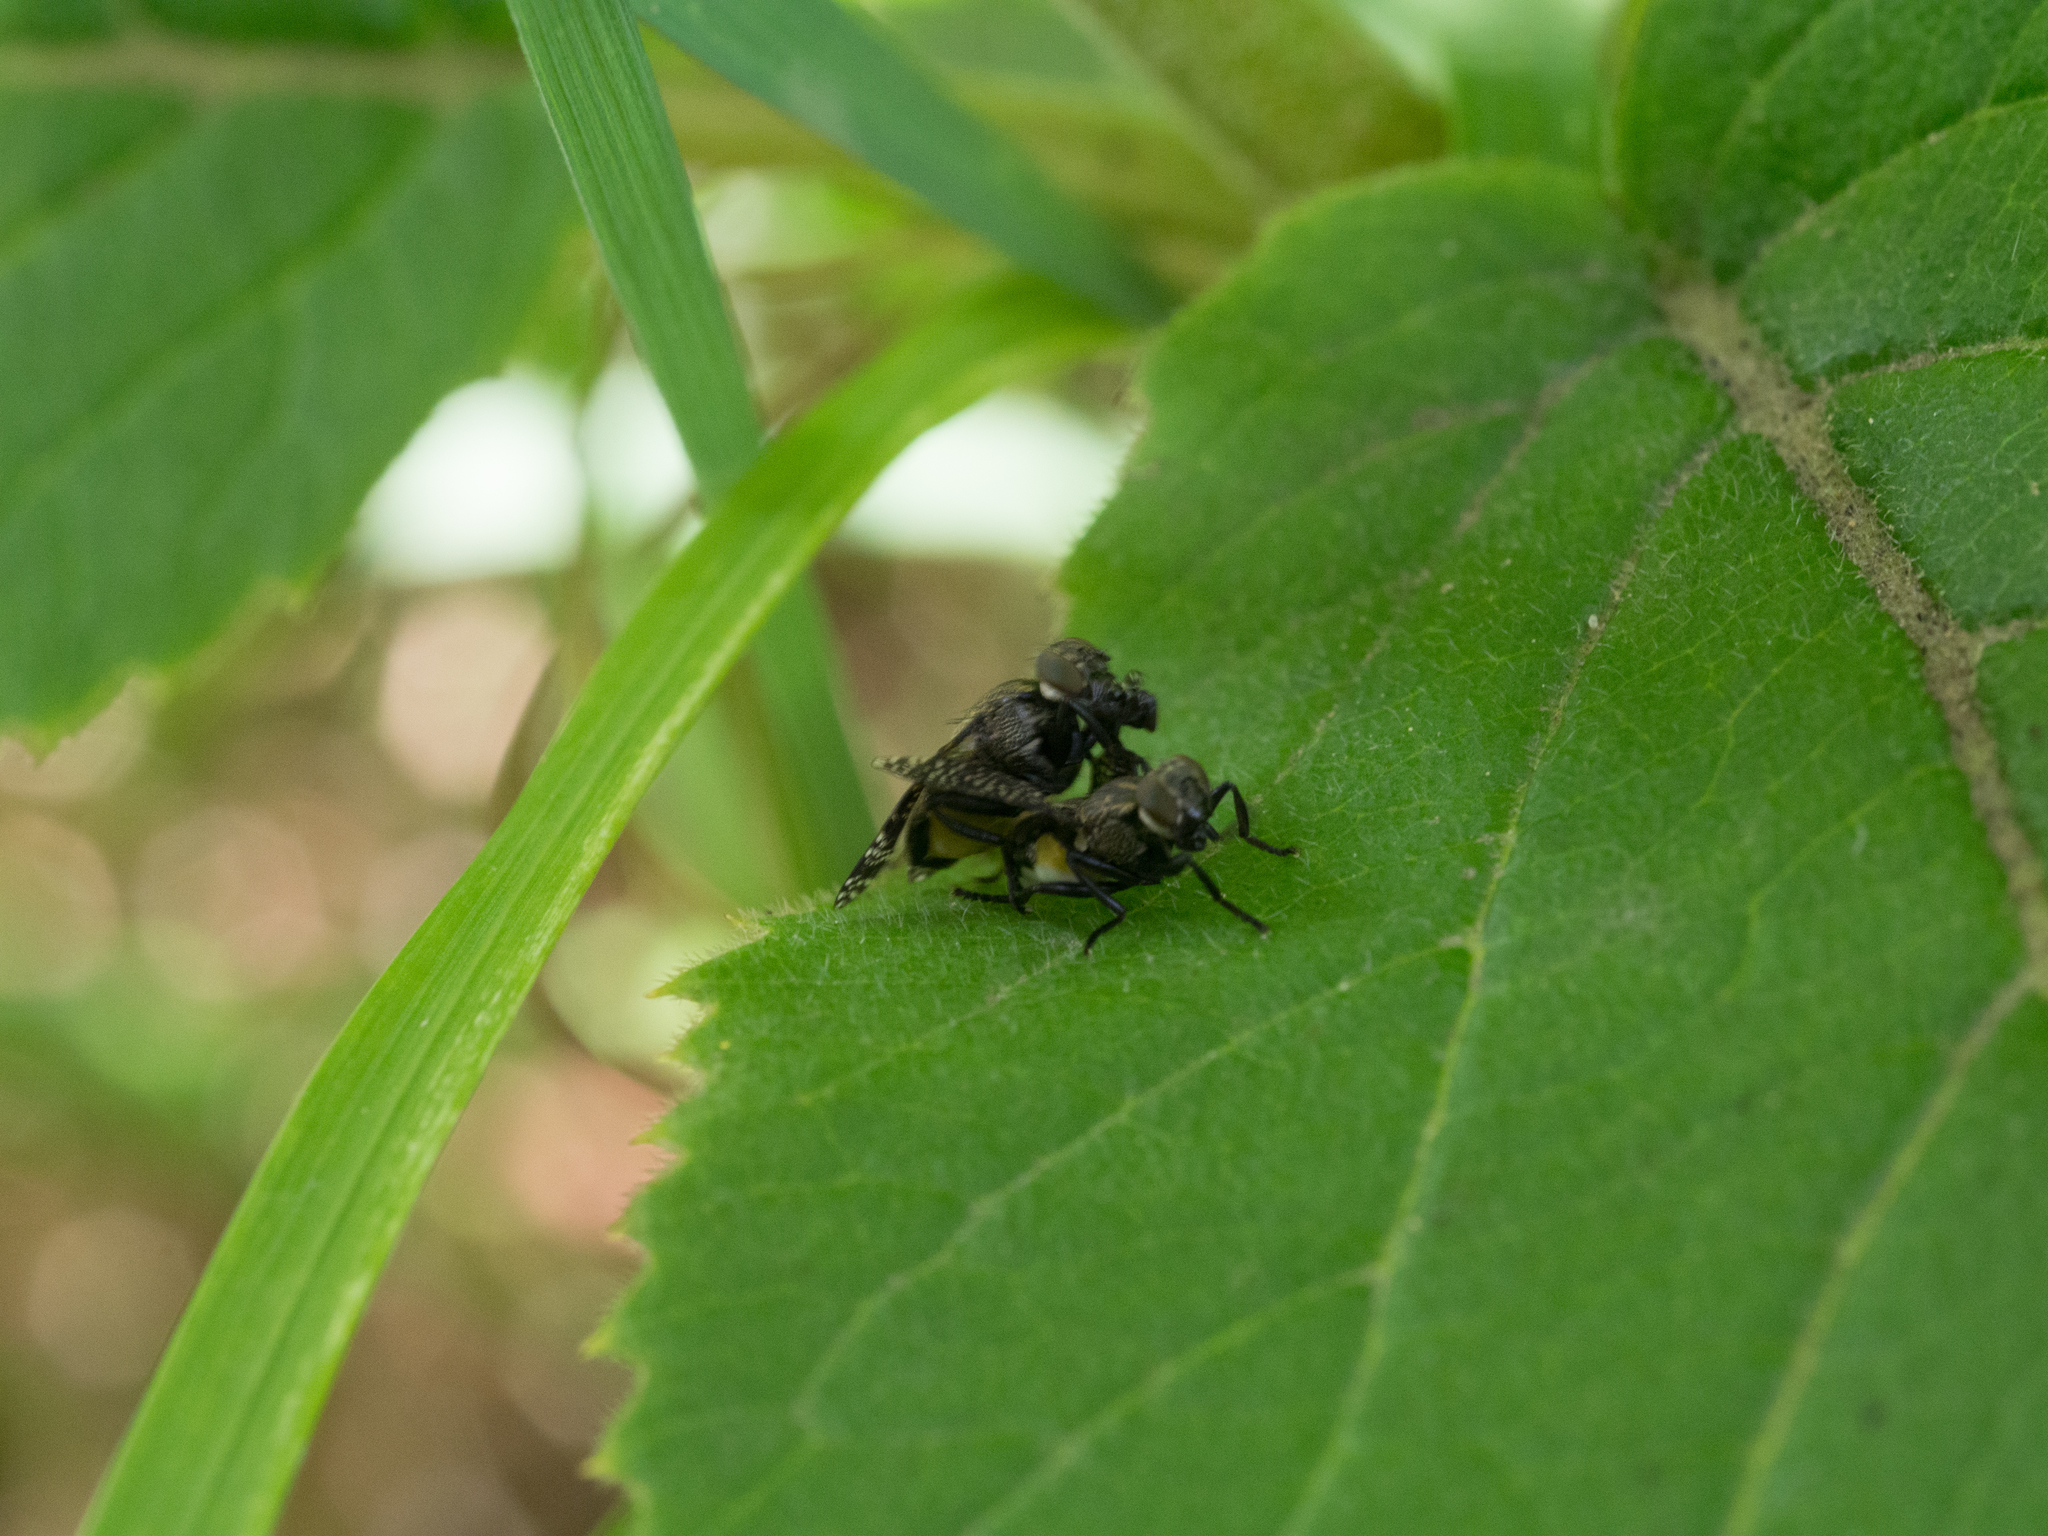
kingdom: Animalia
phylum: Arthropoda
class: Insecta
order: Diptera
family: Platystomatidae
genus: Platystoma
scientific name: Platystoma seminationis
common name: Fly
